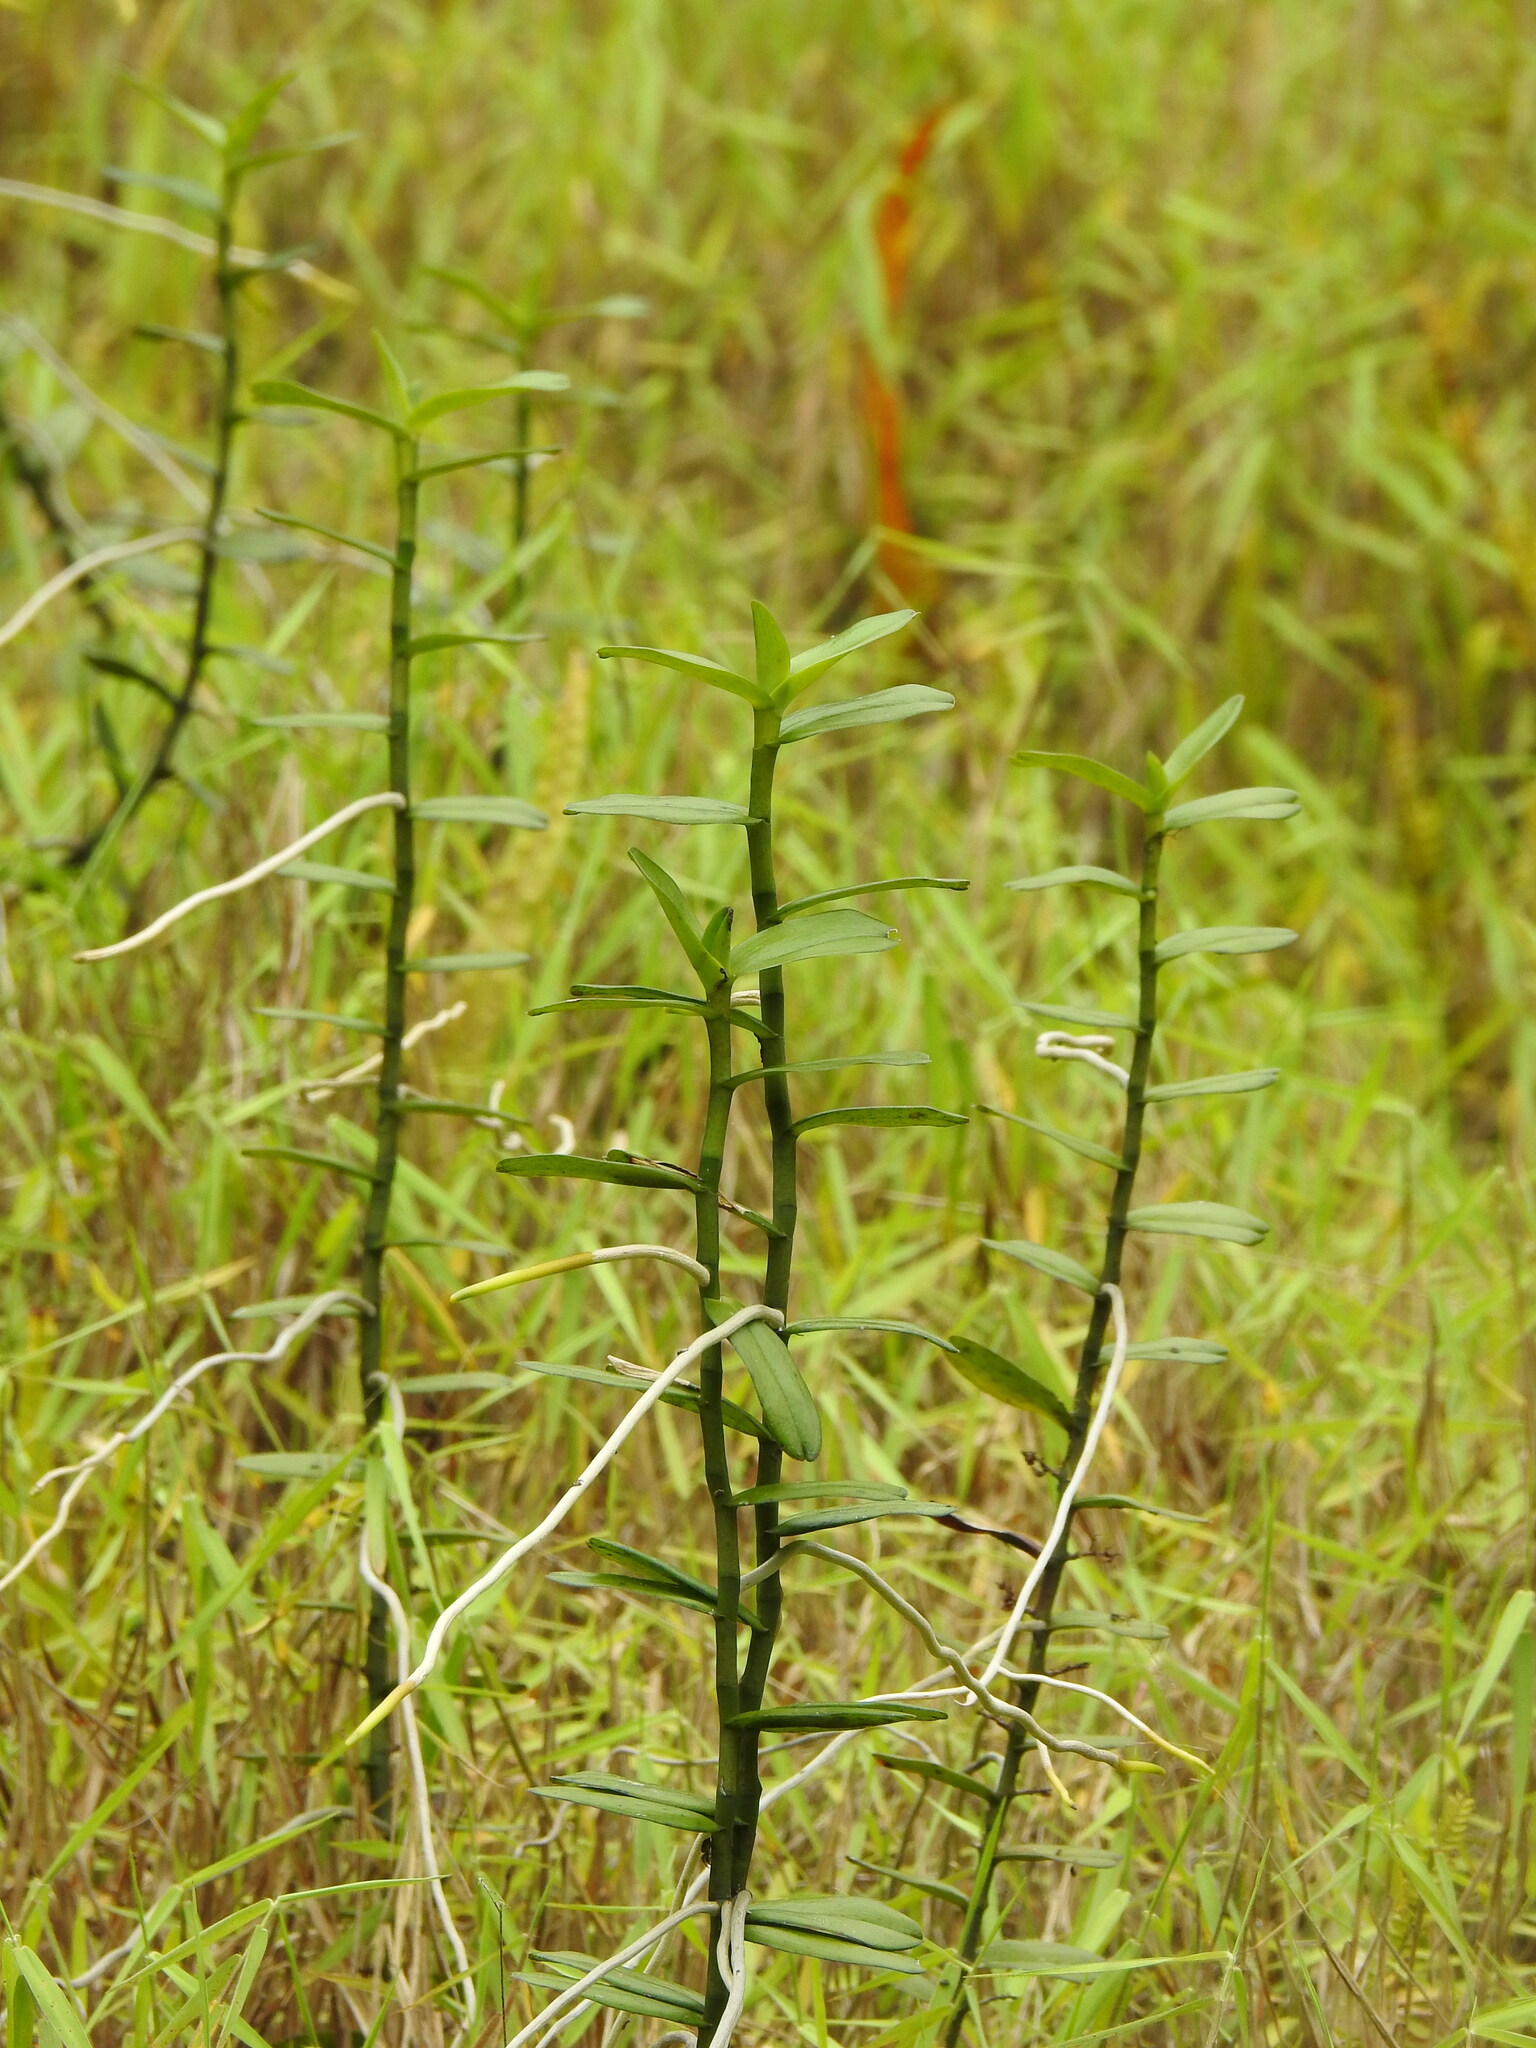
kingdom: Plantae
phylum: Tracheophyta
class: Liliopsida
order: Asparagales
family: Orchidaceae
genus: Solenangis
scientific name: Solenangis clavata
